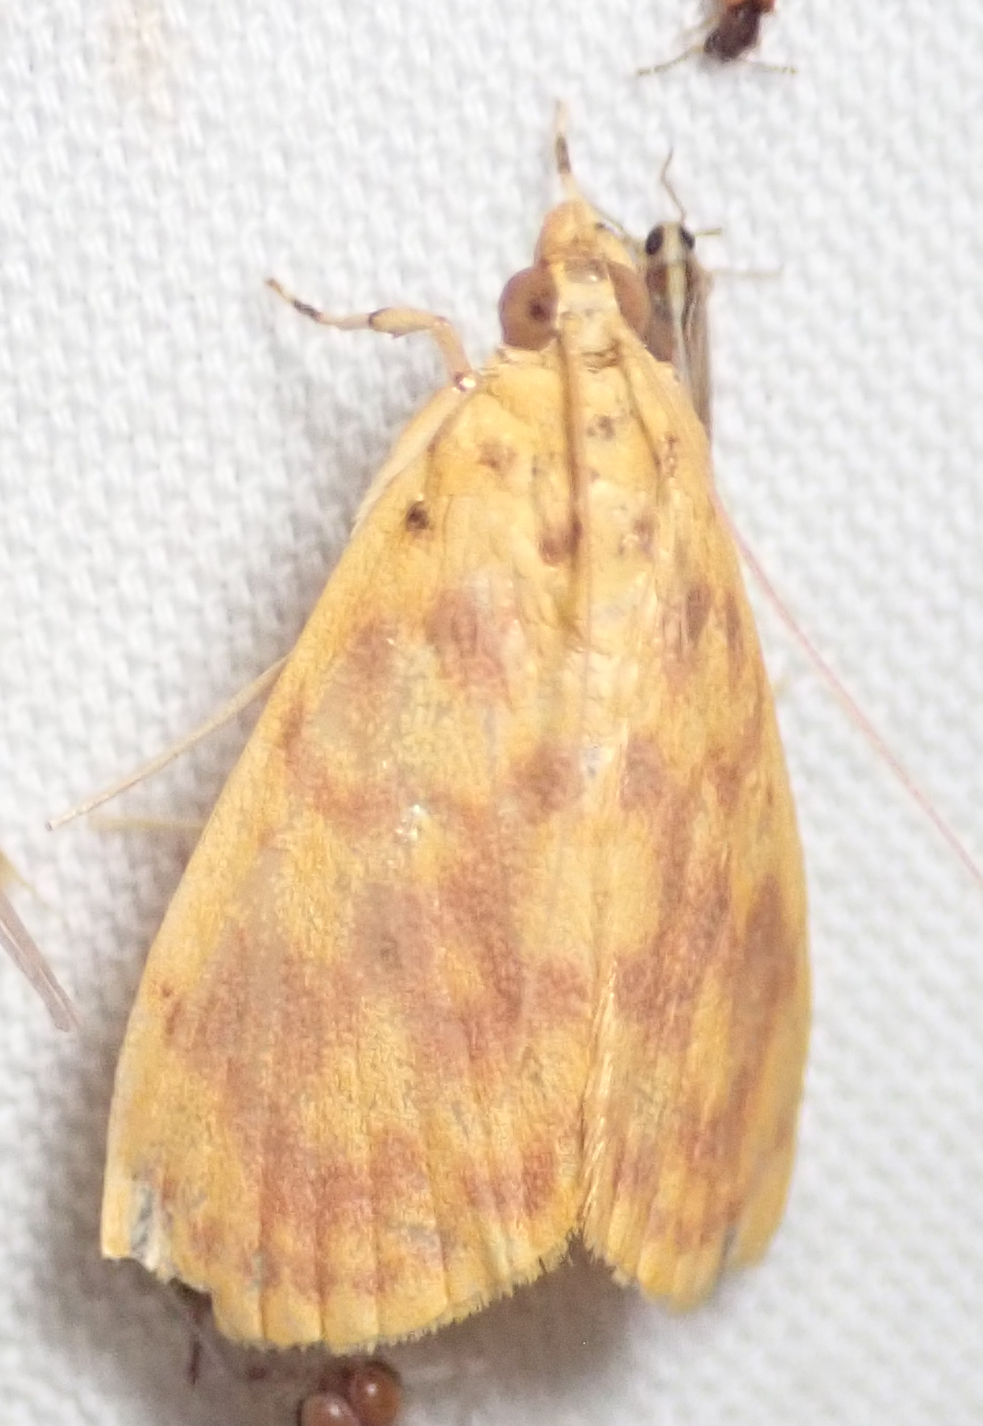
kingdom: Animalia
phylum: Arthropoda
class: Insecta
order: Lepidoptera
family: Crambidae
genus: Epipagis
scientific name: Epipagis olesialis
